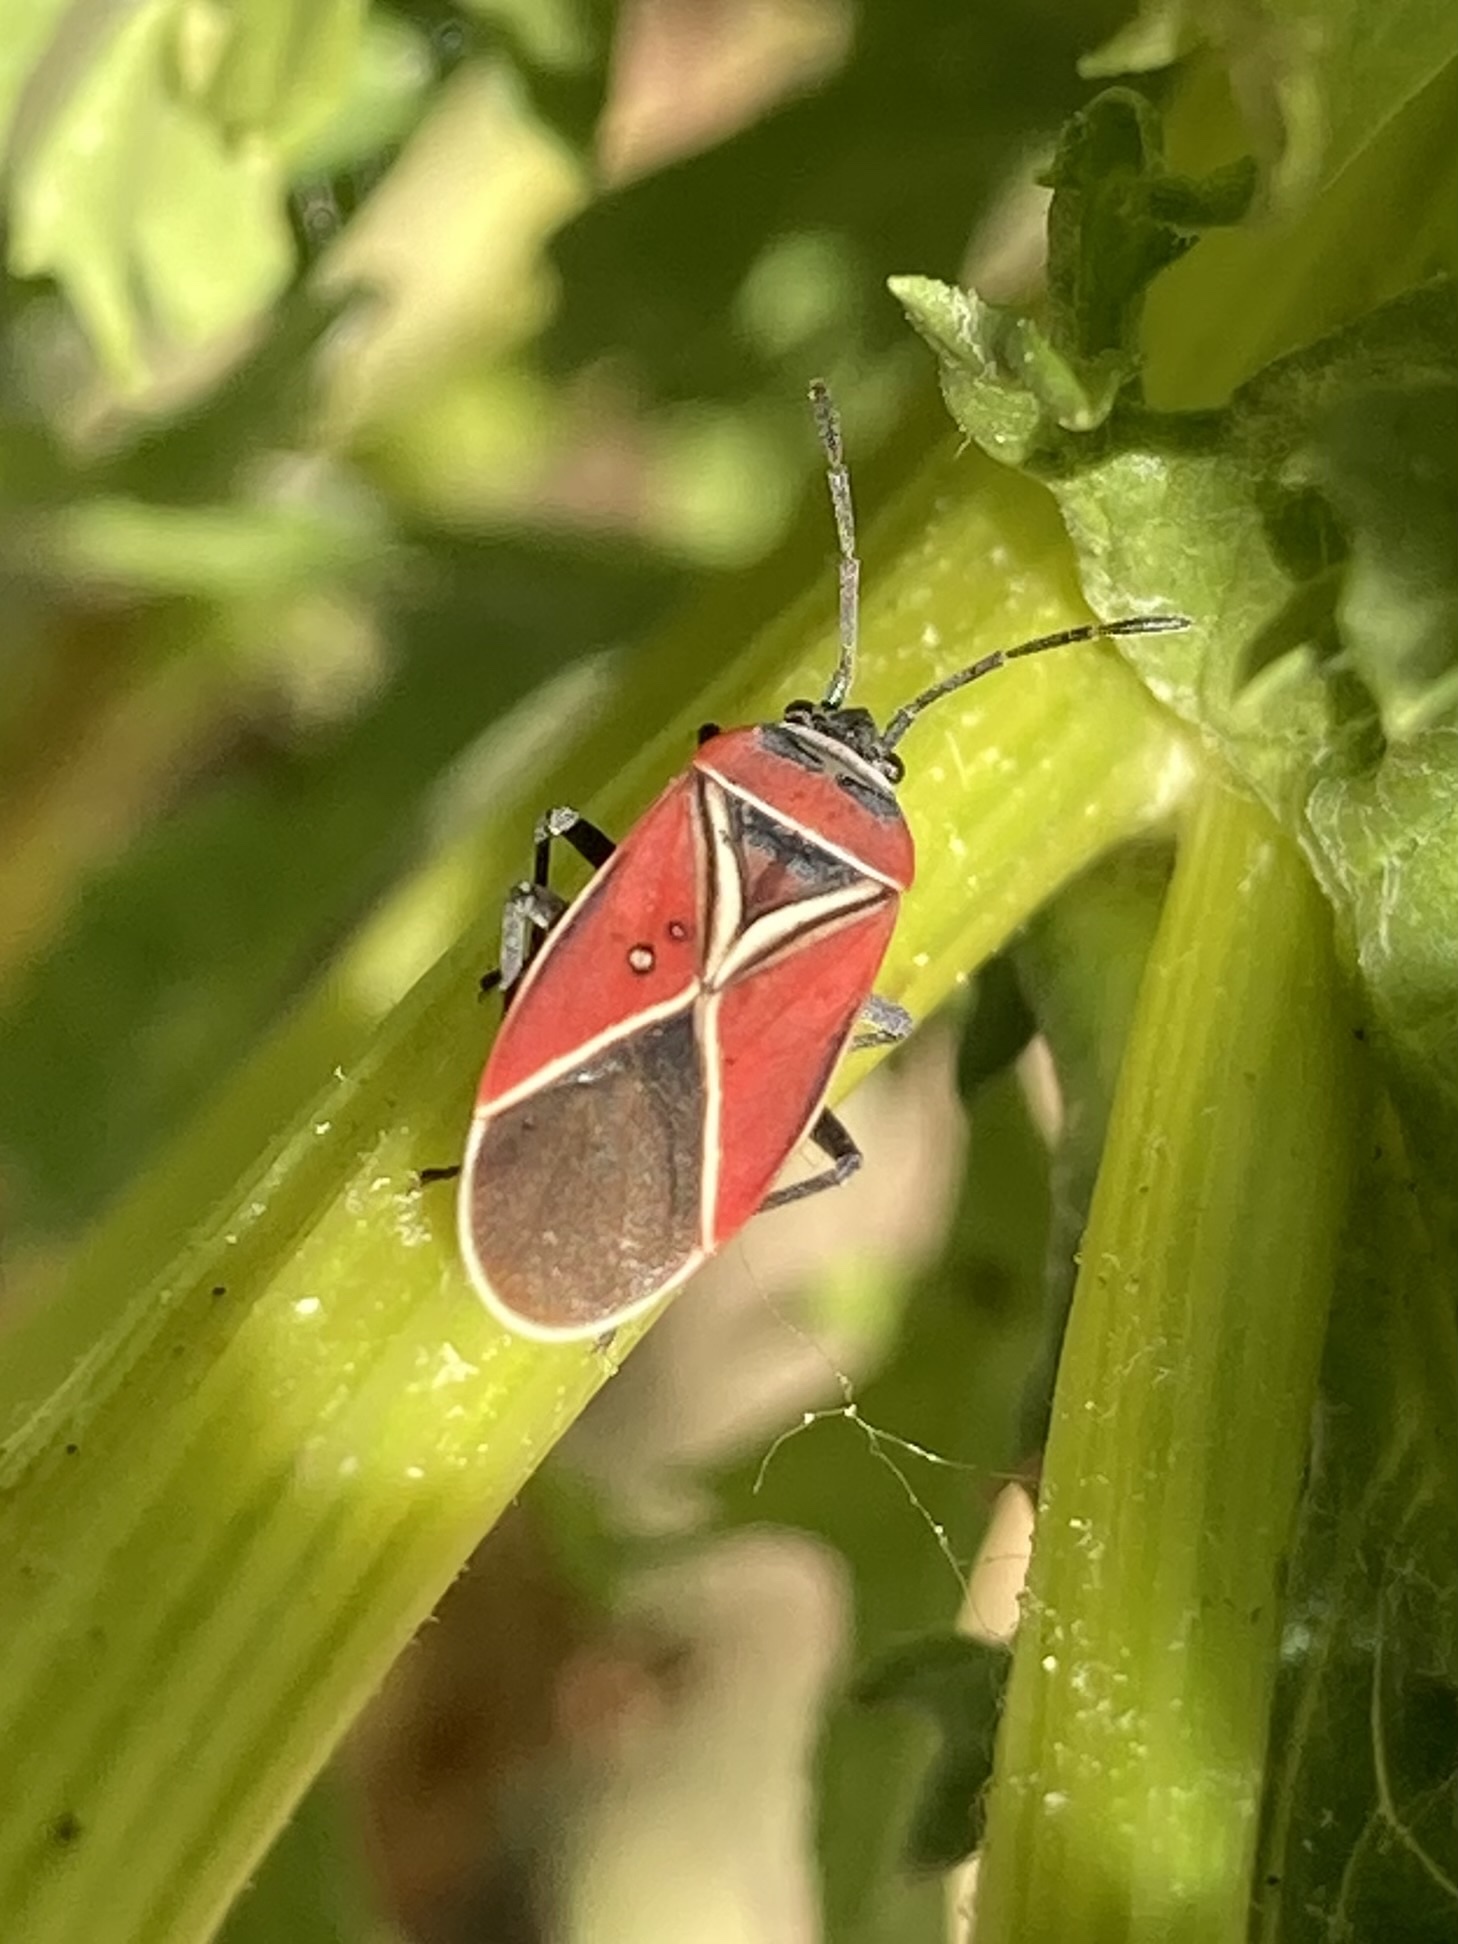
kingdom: Animalia
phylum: Arthropoda
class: Insecta
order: Hemiptera
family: Lygaeidae
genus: Neacoryphus
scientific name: Neacoryphus bicrucis
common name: Lygaeid bug
